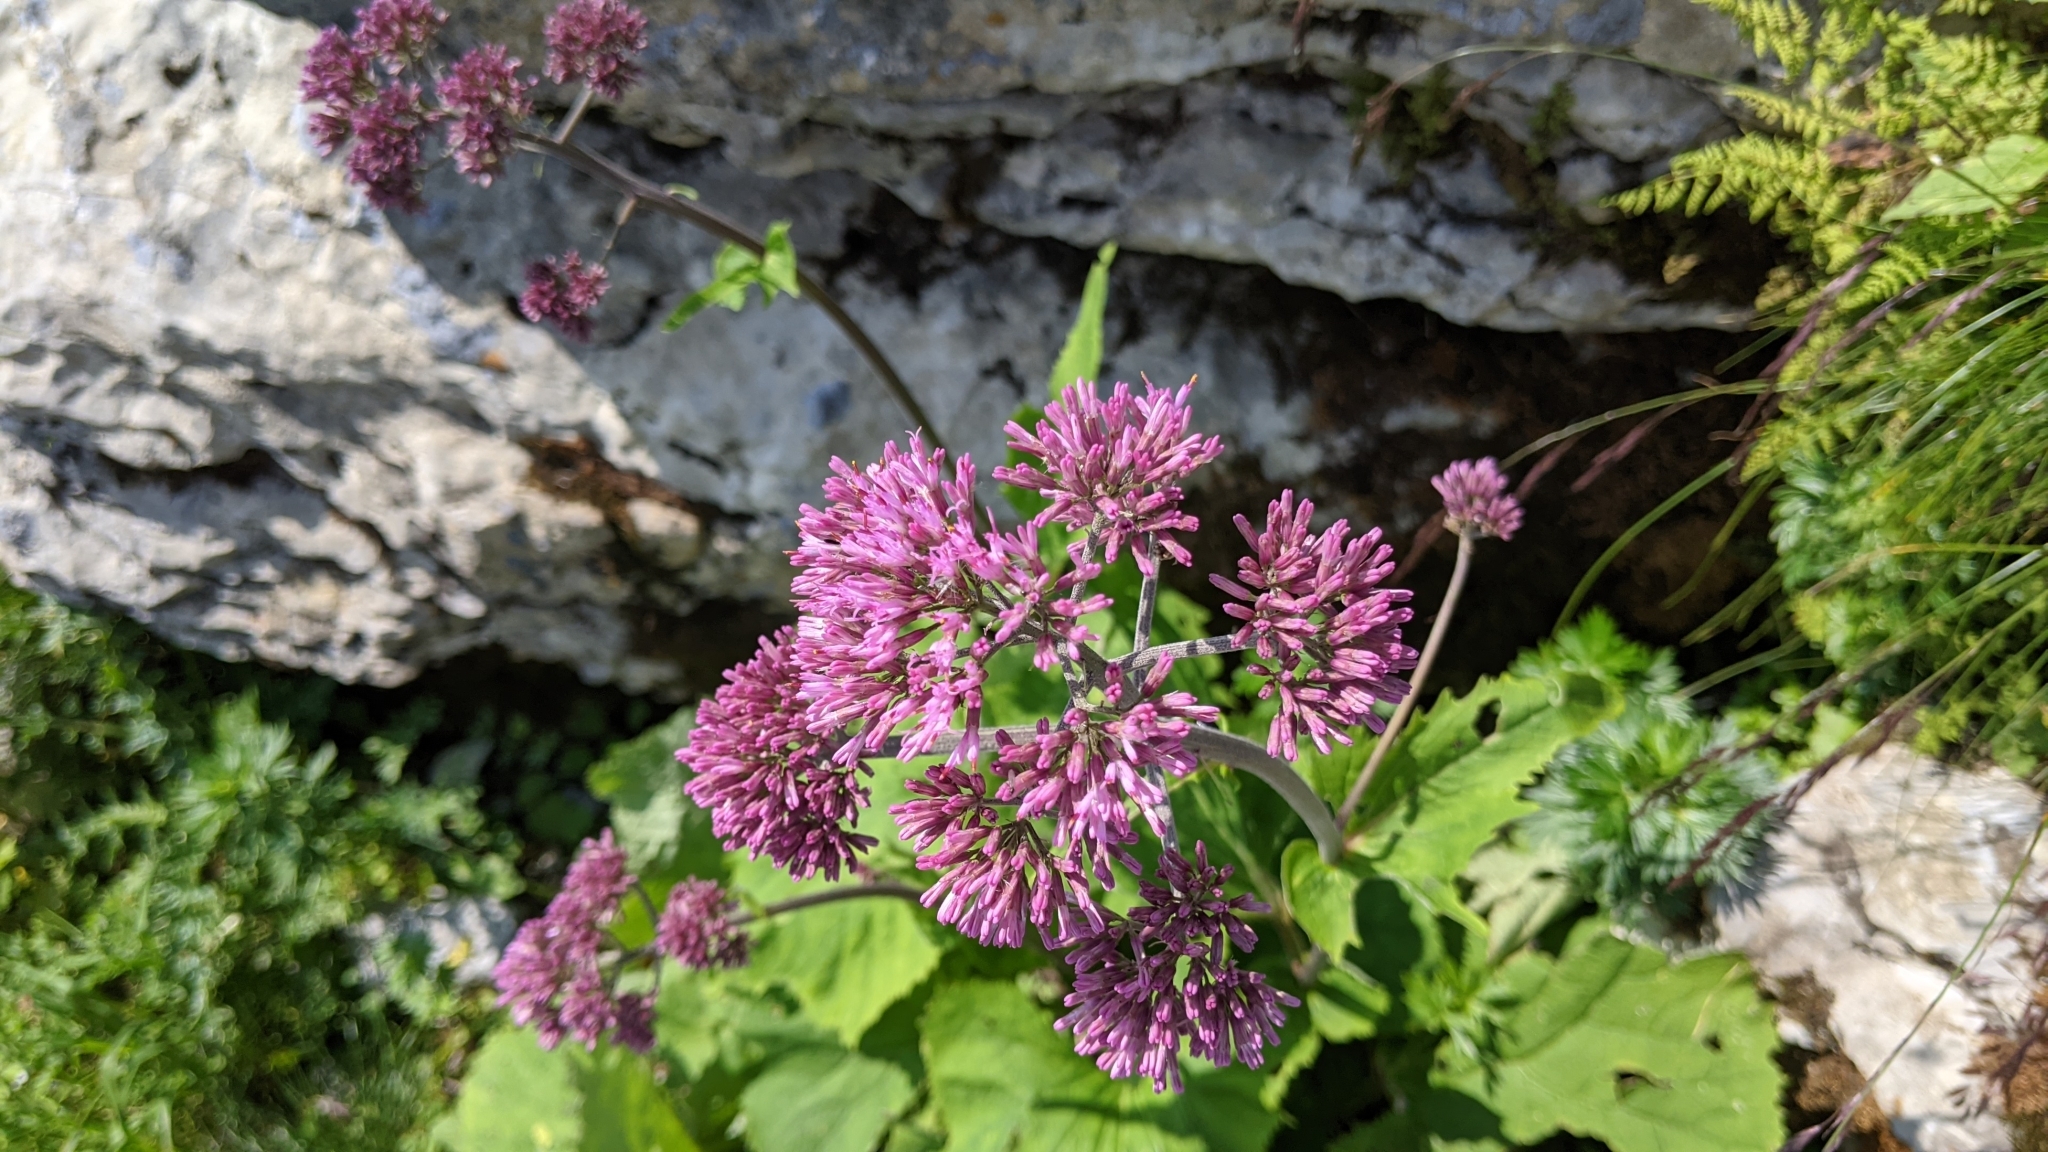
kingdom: Plantae
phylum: Tracheophyta
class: Magnoliopsida
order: Asterales
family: Asteraceae
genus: Adenostyles
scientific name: Adenostyles alliariae
